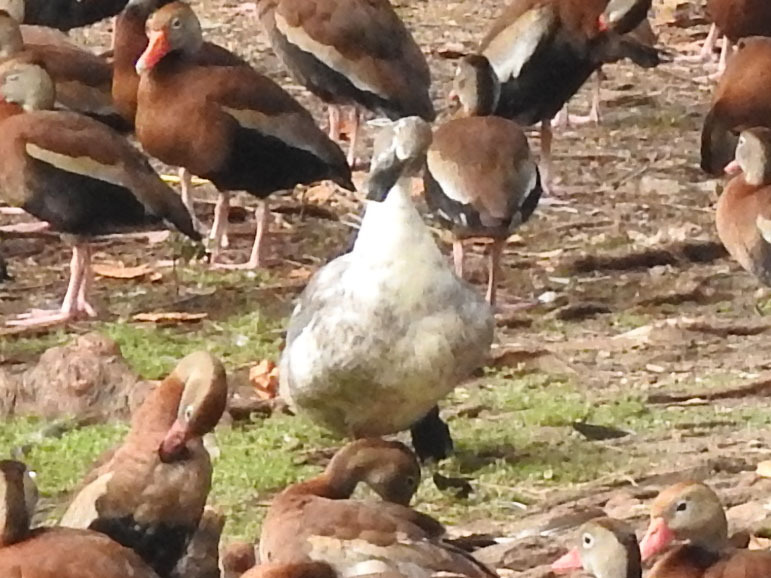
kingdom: Animalia
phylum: Chordata
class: Aves
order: Anseriformes
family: Anatidae
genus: Anas
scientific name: Anas platyrhynchos
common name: Mallard
